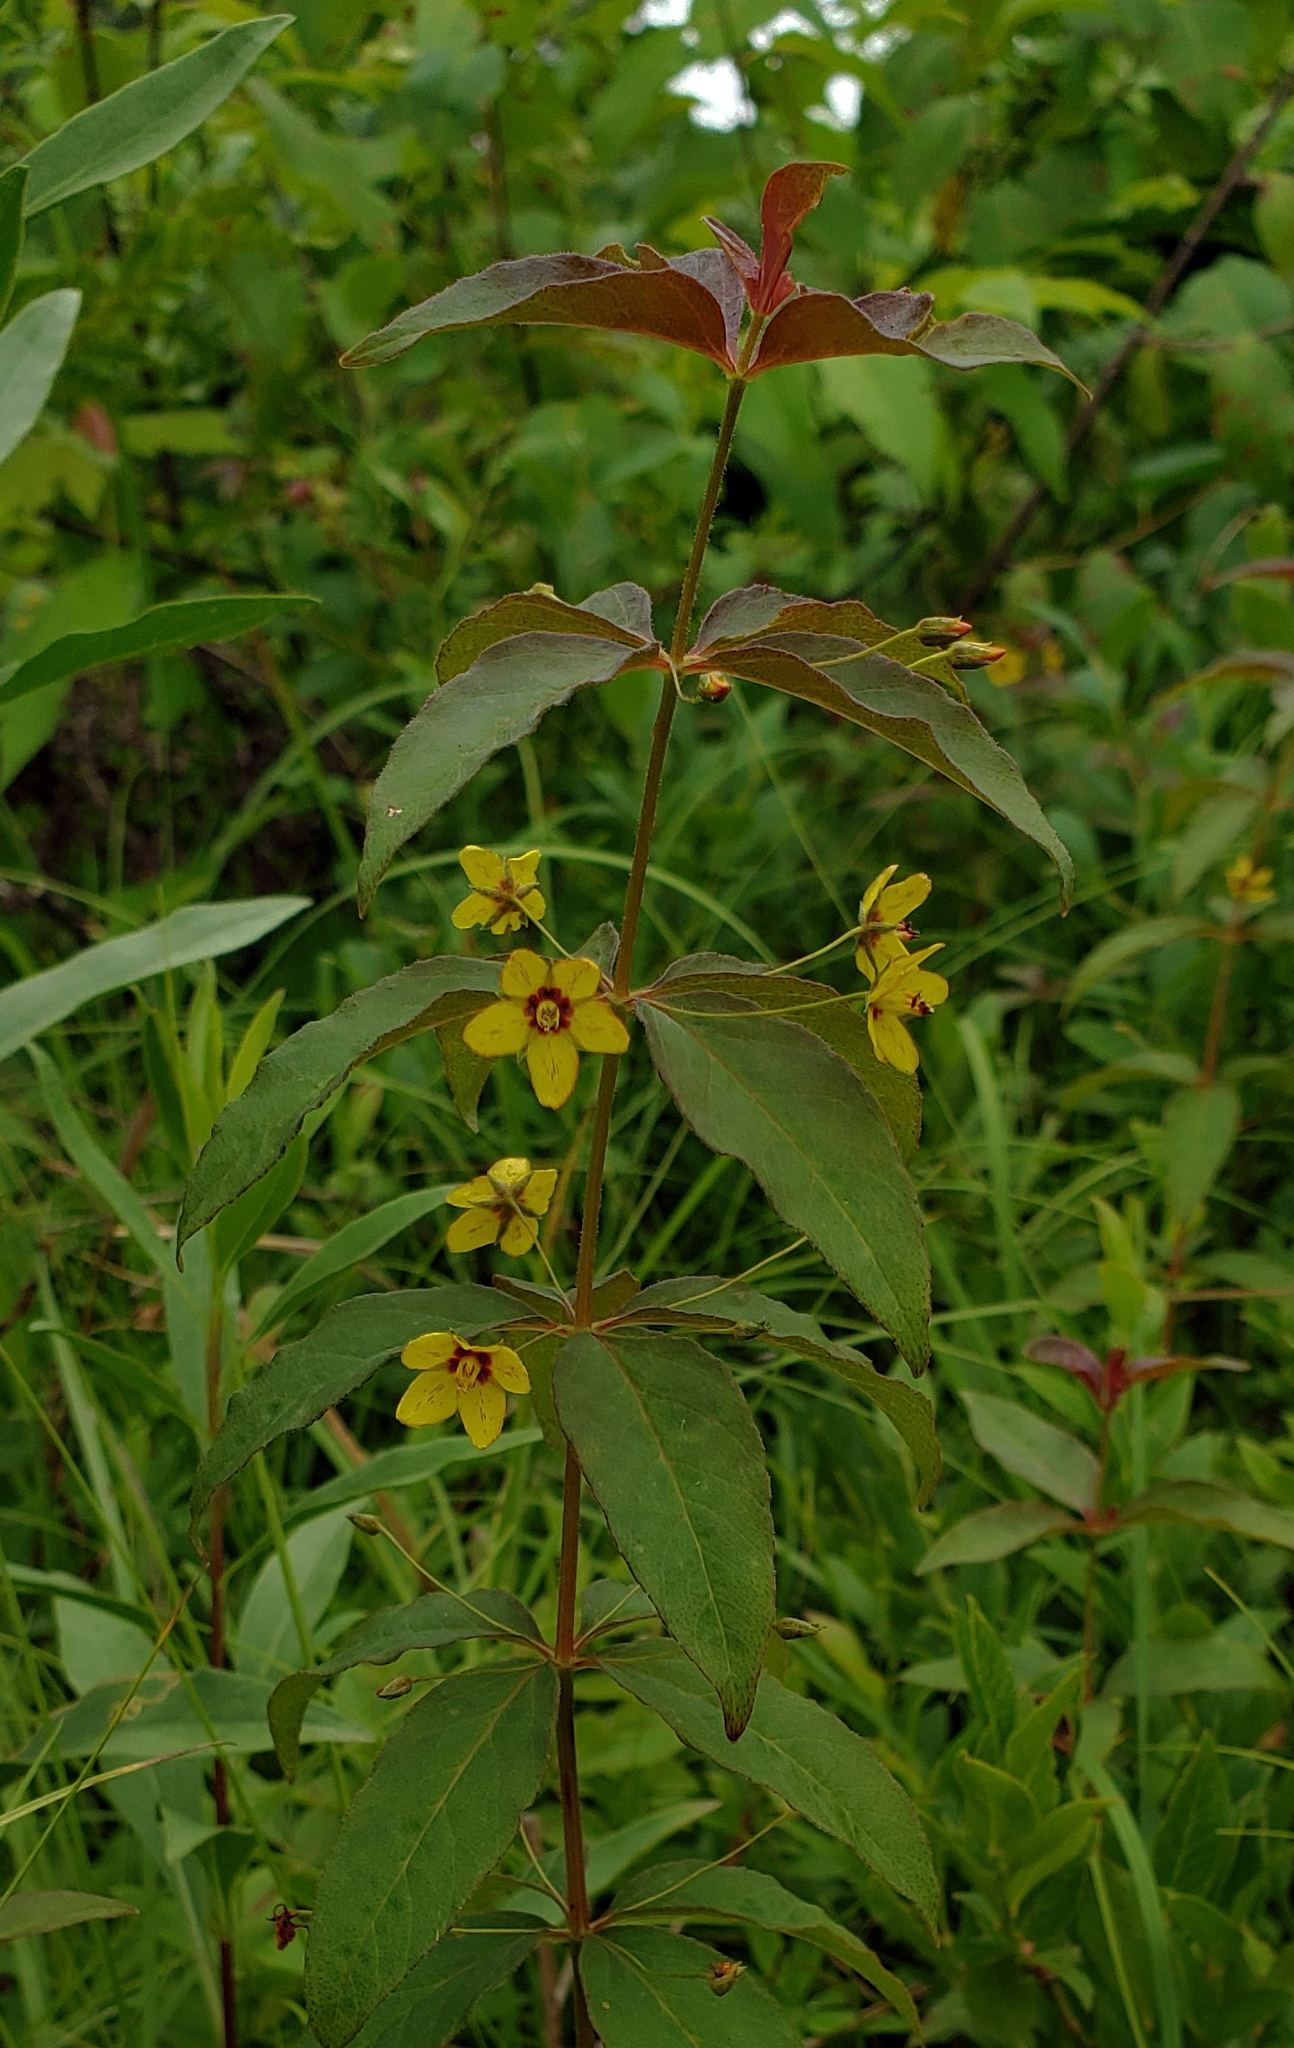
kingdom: Plantae
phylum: Tracheophyta
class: Magnoliopsida
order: Ericales
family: Primulaceae
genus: Lysimachia
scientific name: Lysimachia quadrifolia
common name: Whorled loosestrife
